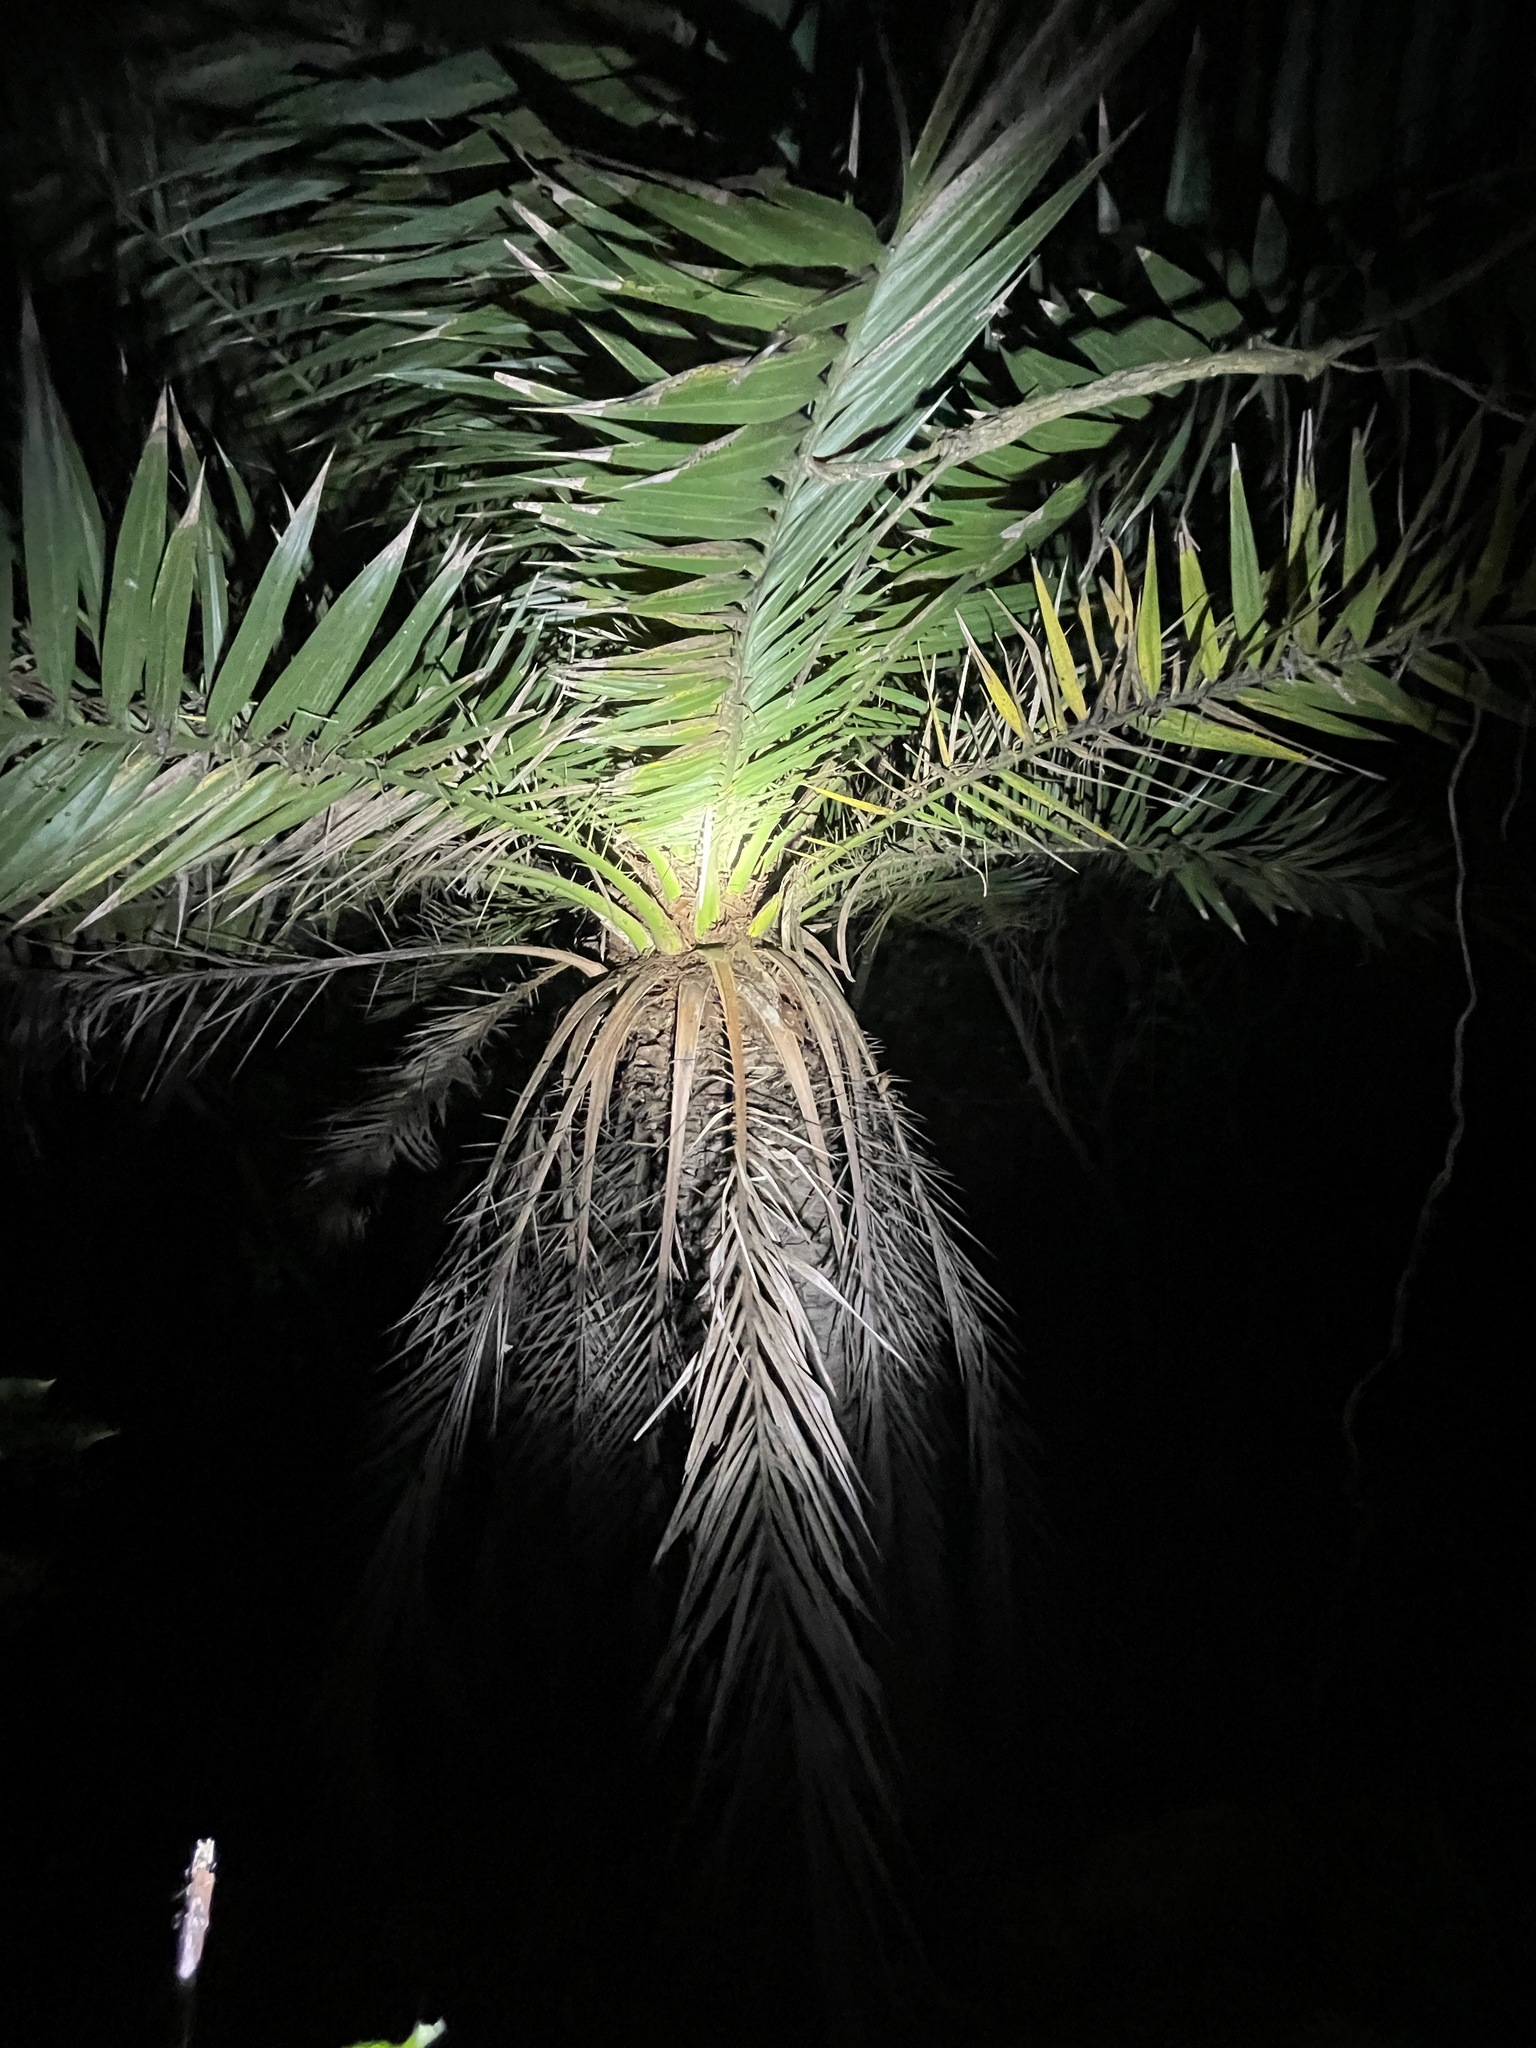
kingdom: Plantae
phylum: Tracheophyta
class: Liliopsida
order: Arecales
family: Arecaceae
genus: Phoenix
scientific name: Phoenix loureiroi
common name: Loureiro's palm
